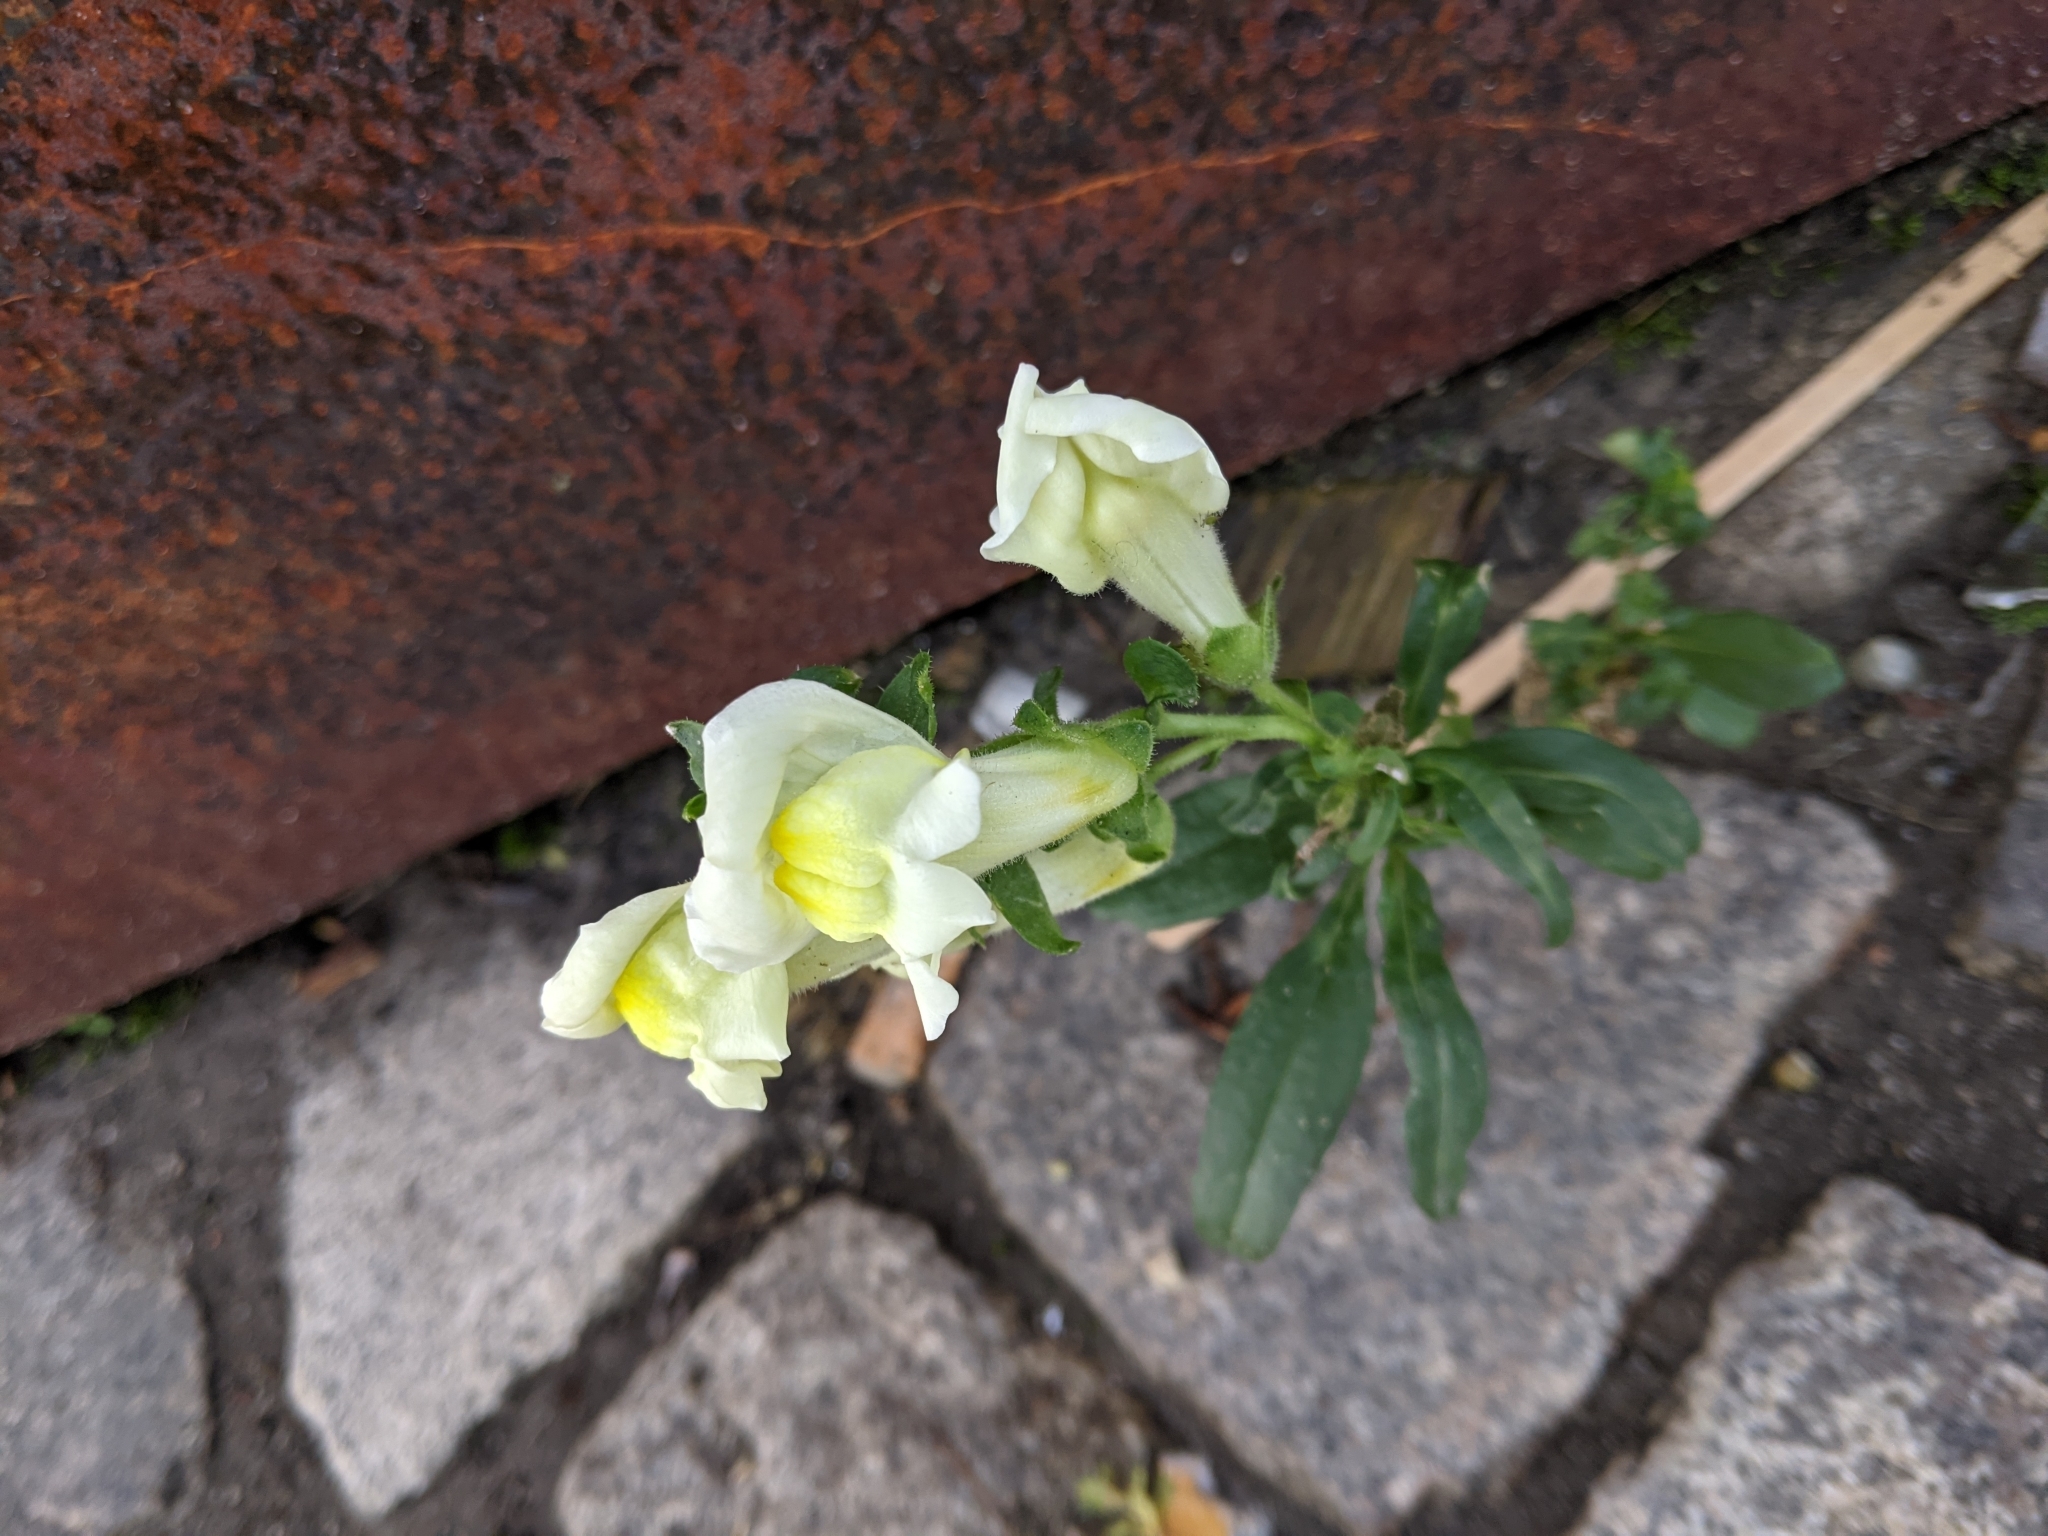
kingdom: Plantae
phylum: Tracheophyta
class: Magnoliopsida
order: Lamiales
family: Plantaginaceae
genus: Antirrhinum
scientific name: Antirrhinum majus
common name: Snapdragon
